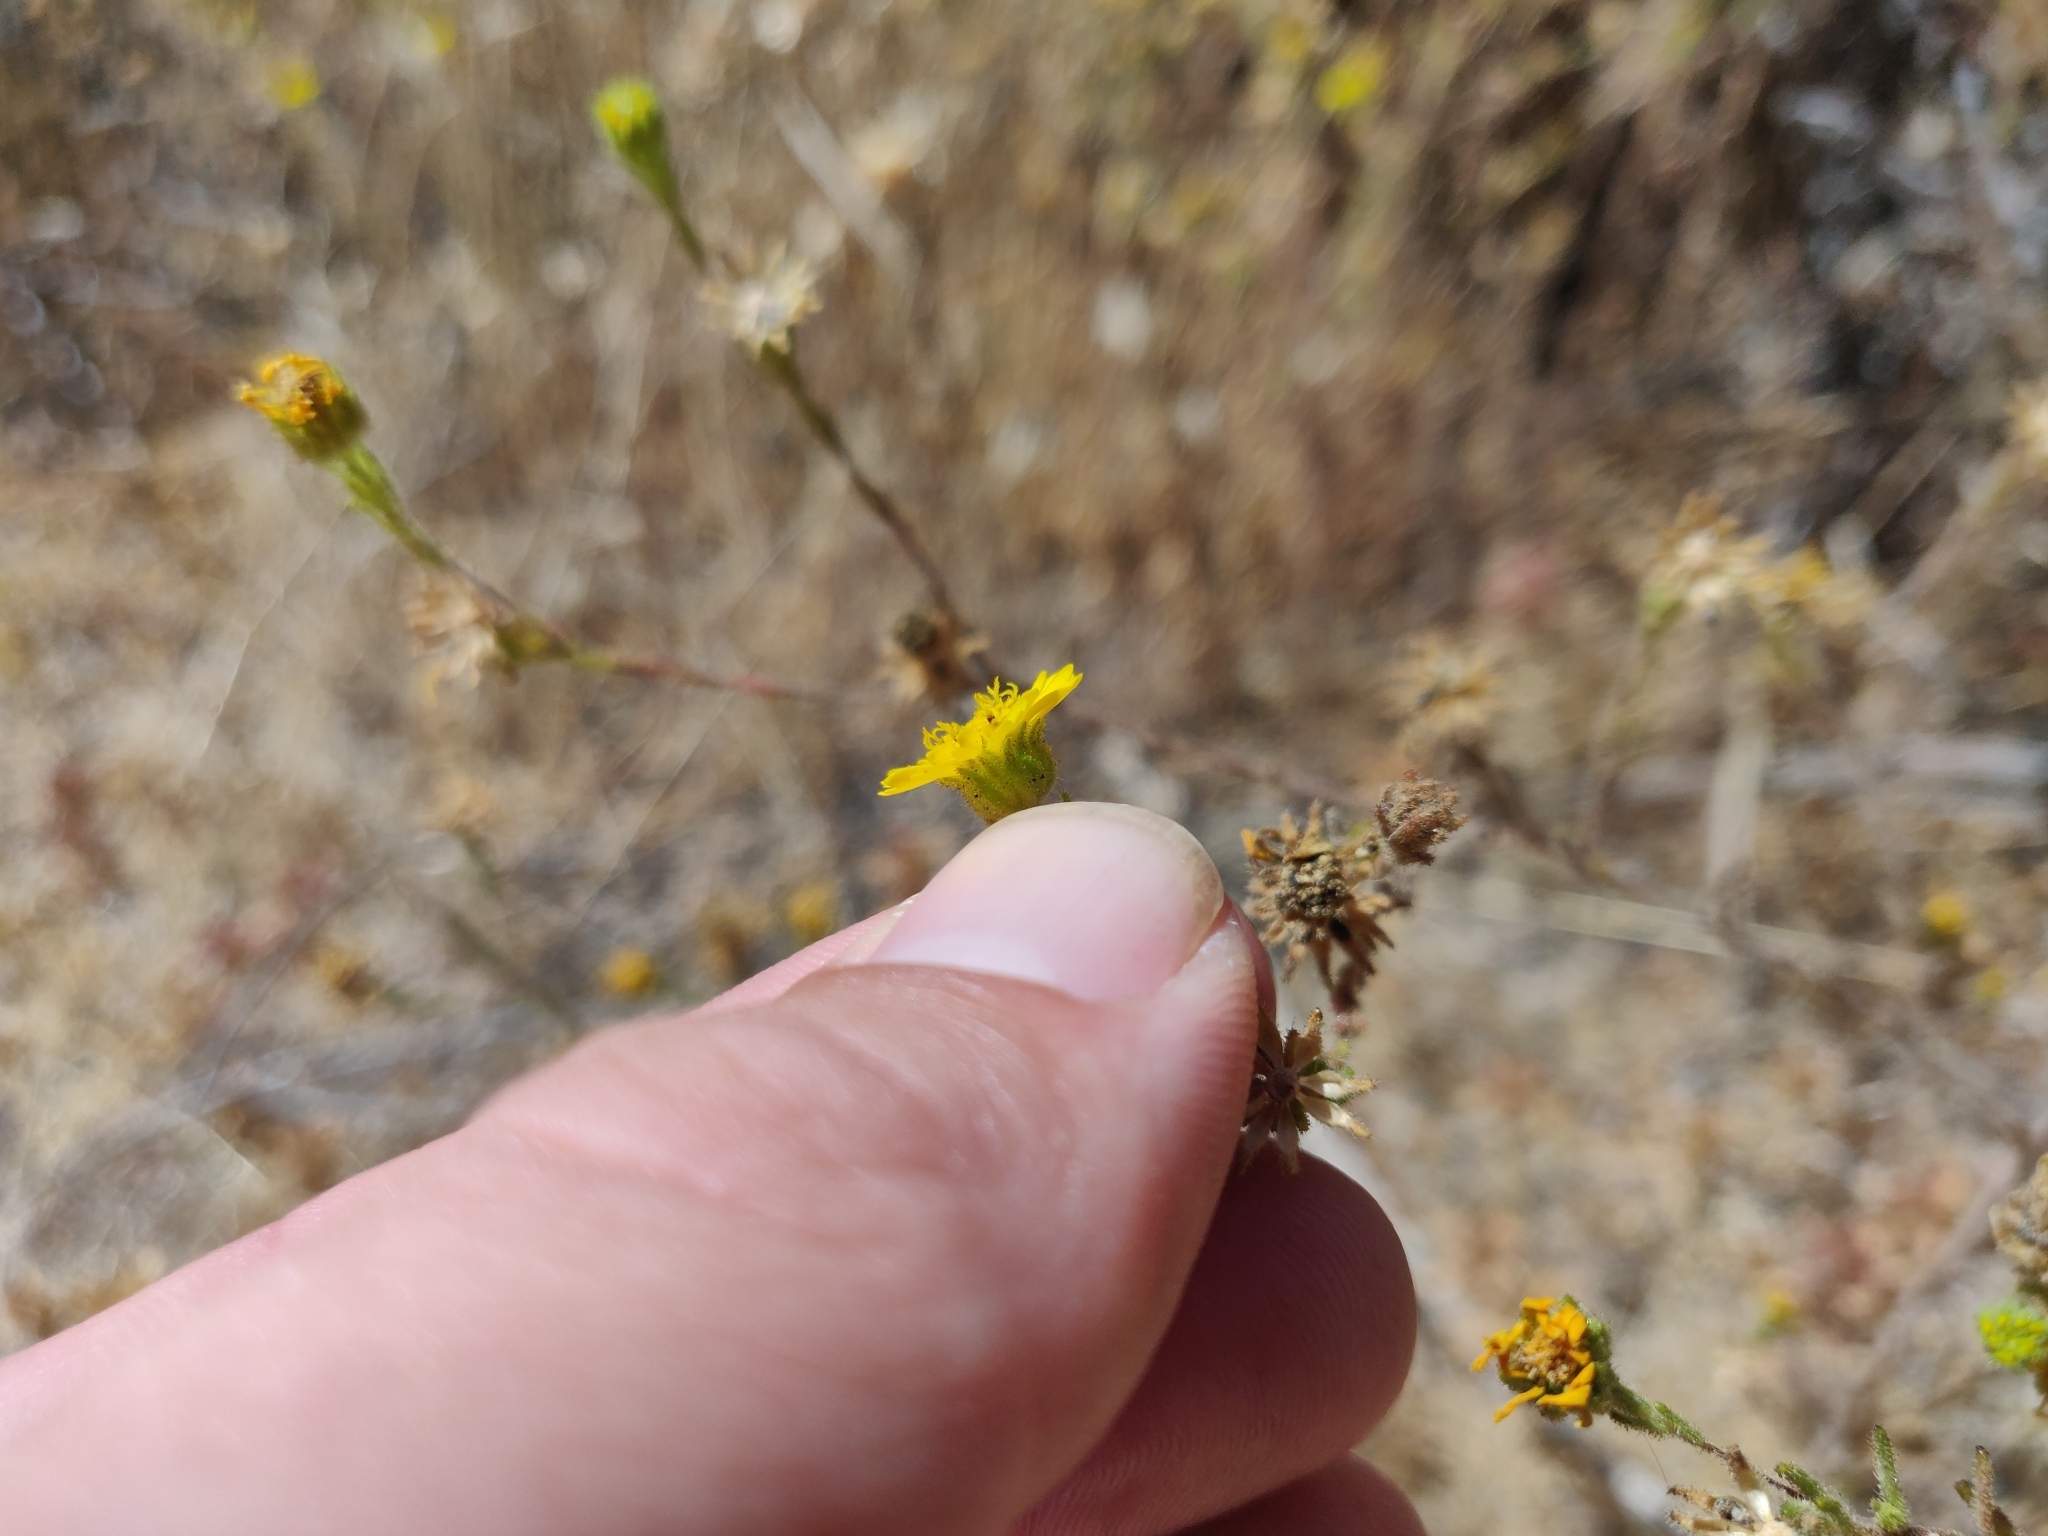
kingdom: Plantae
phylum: Tracheophyta
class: Magnoliopsida
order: Asterales
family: Asteraceae
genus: Deinandra
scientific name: Deinandra corymbosa
